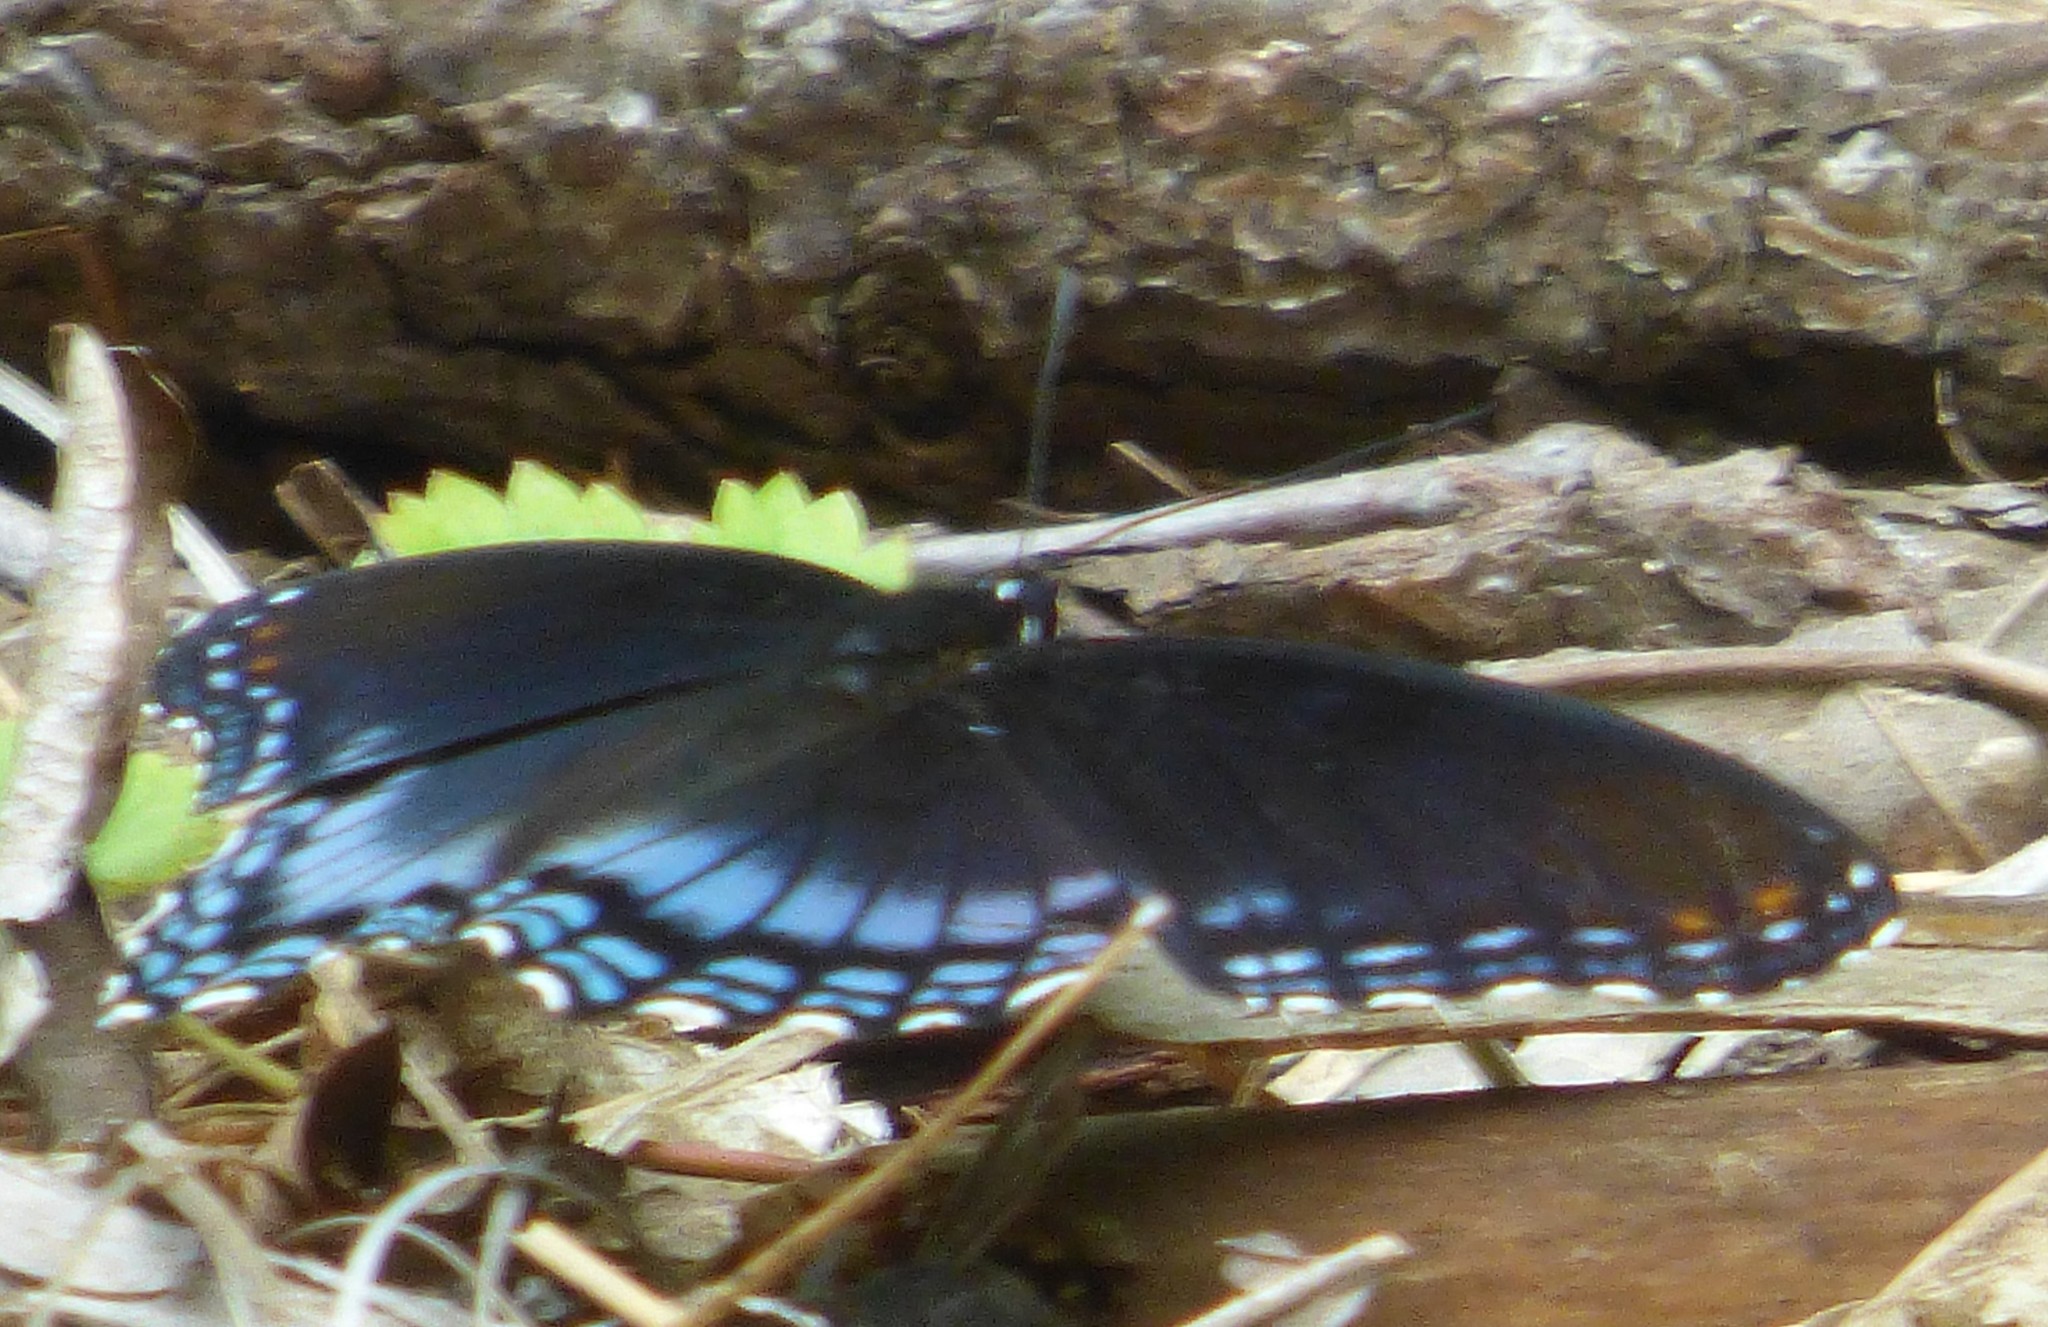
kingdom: Animalia
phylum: Arthropoda
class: Insecta
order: Lepidoptera
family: Nymphalidae
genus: Limenitis
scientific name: Limenitis astyanax
